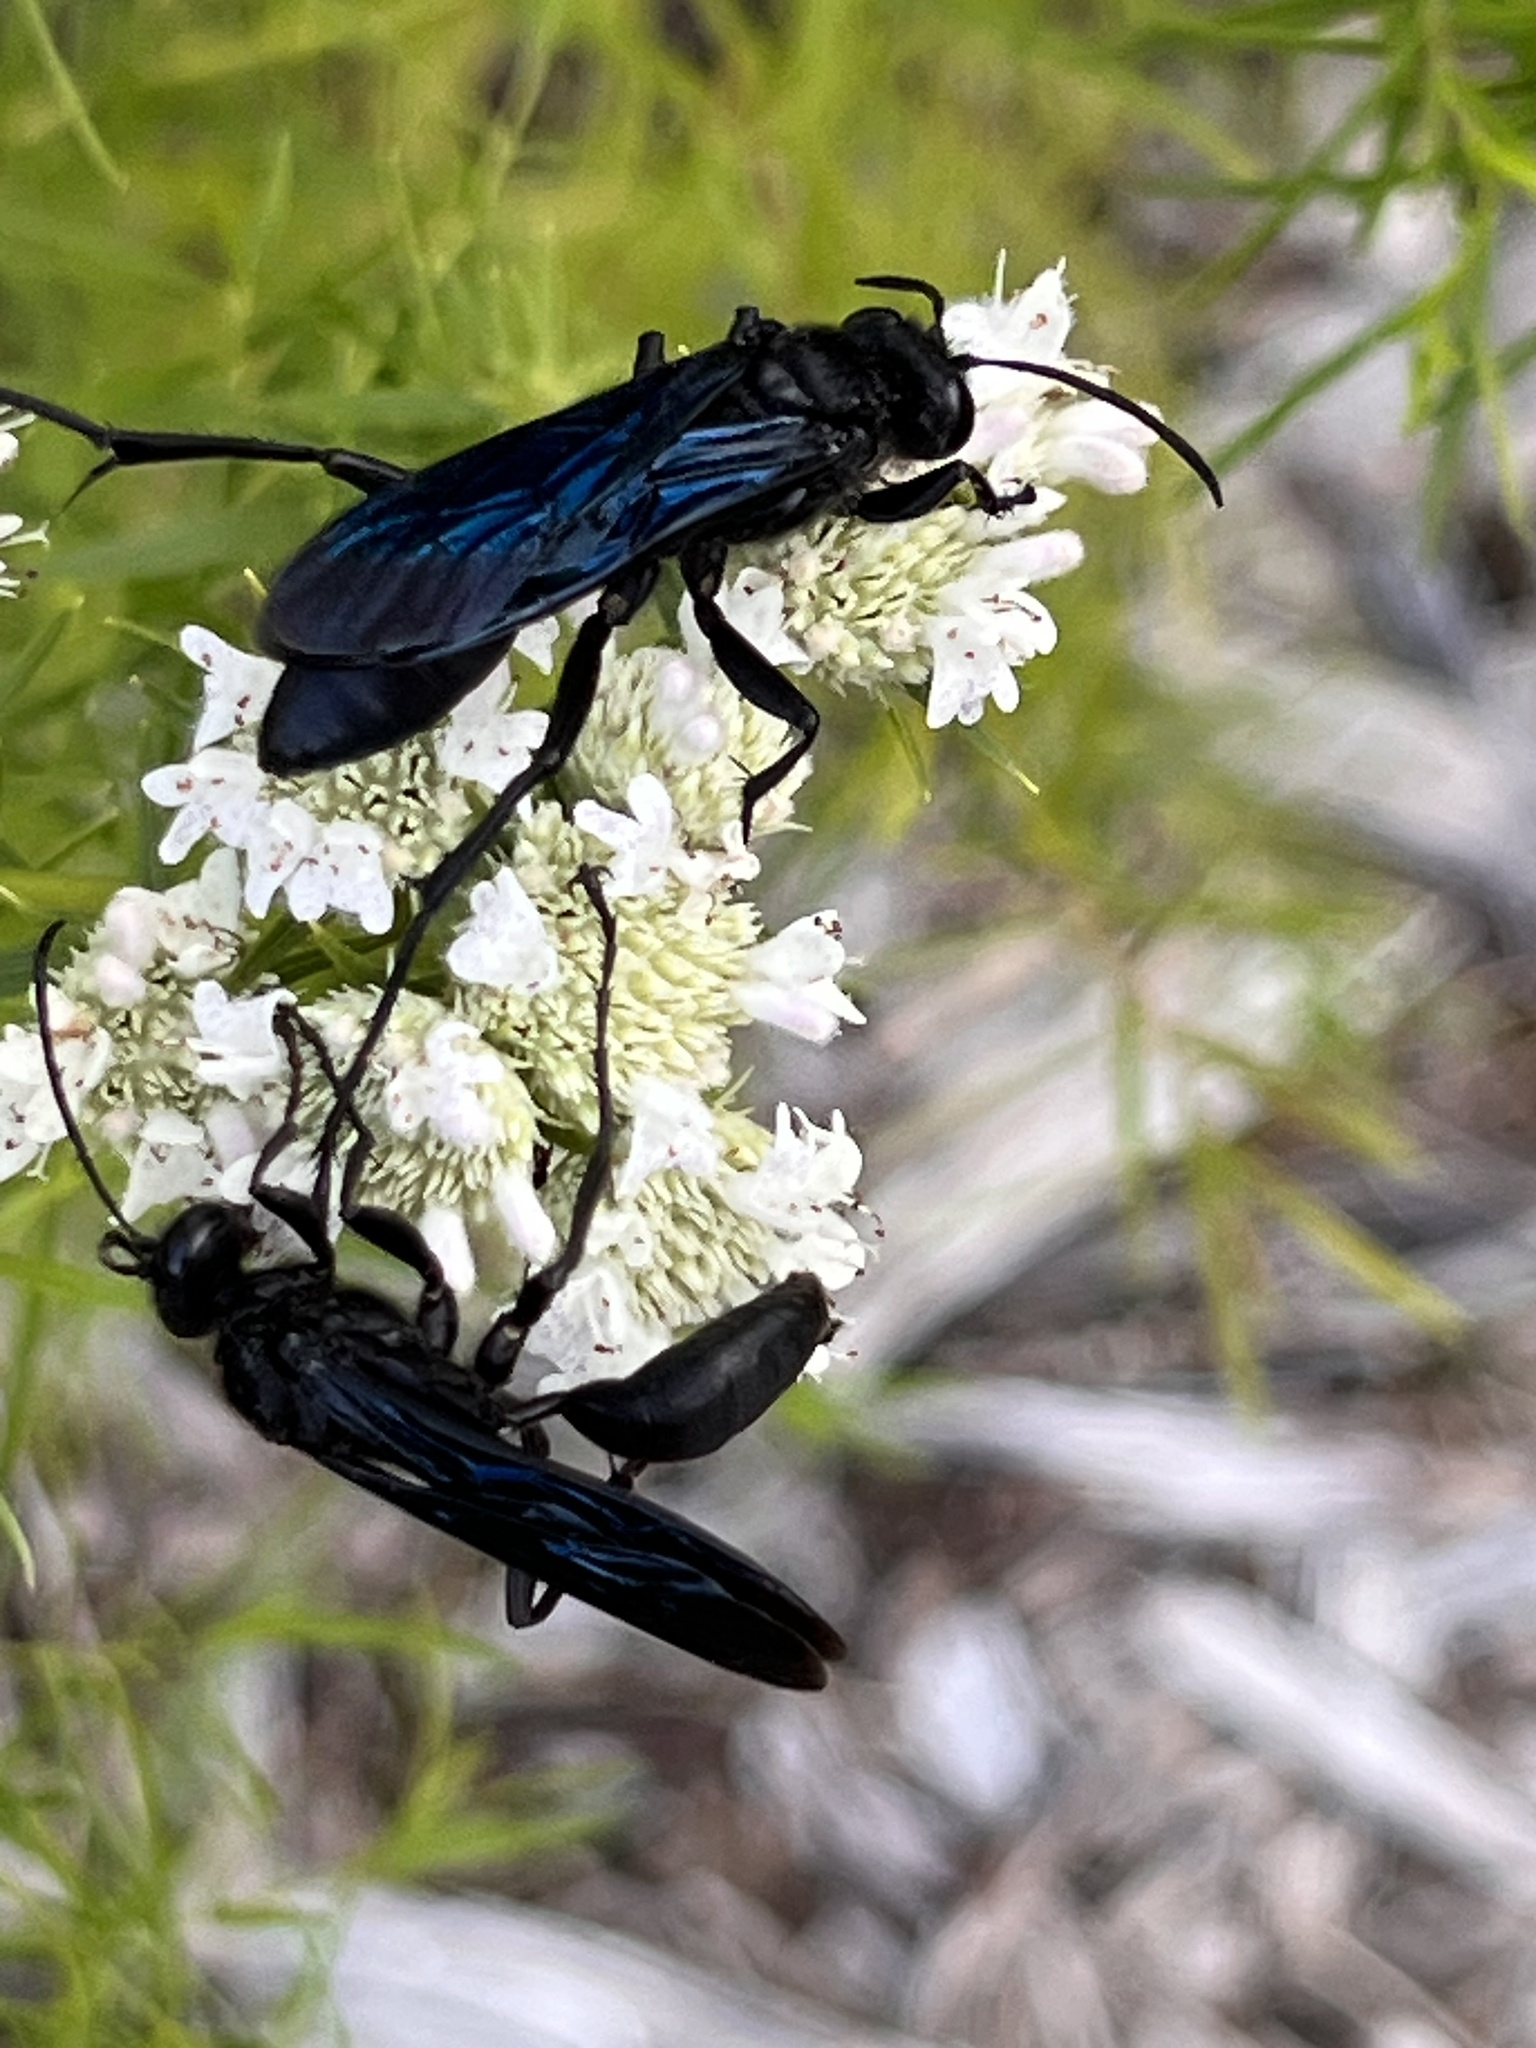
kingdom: Animalia
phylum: Arthropoda
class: Insecta
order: Hymenoptera
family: Sphecidae
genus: Sphex
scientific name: Sphex pensylvanicus
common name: Great black digger wasp
